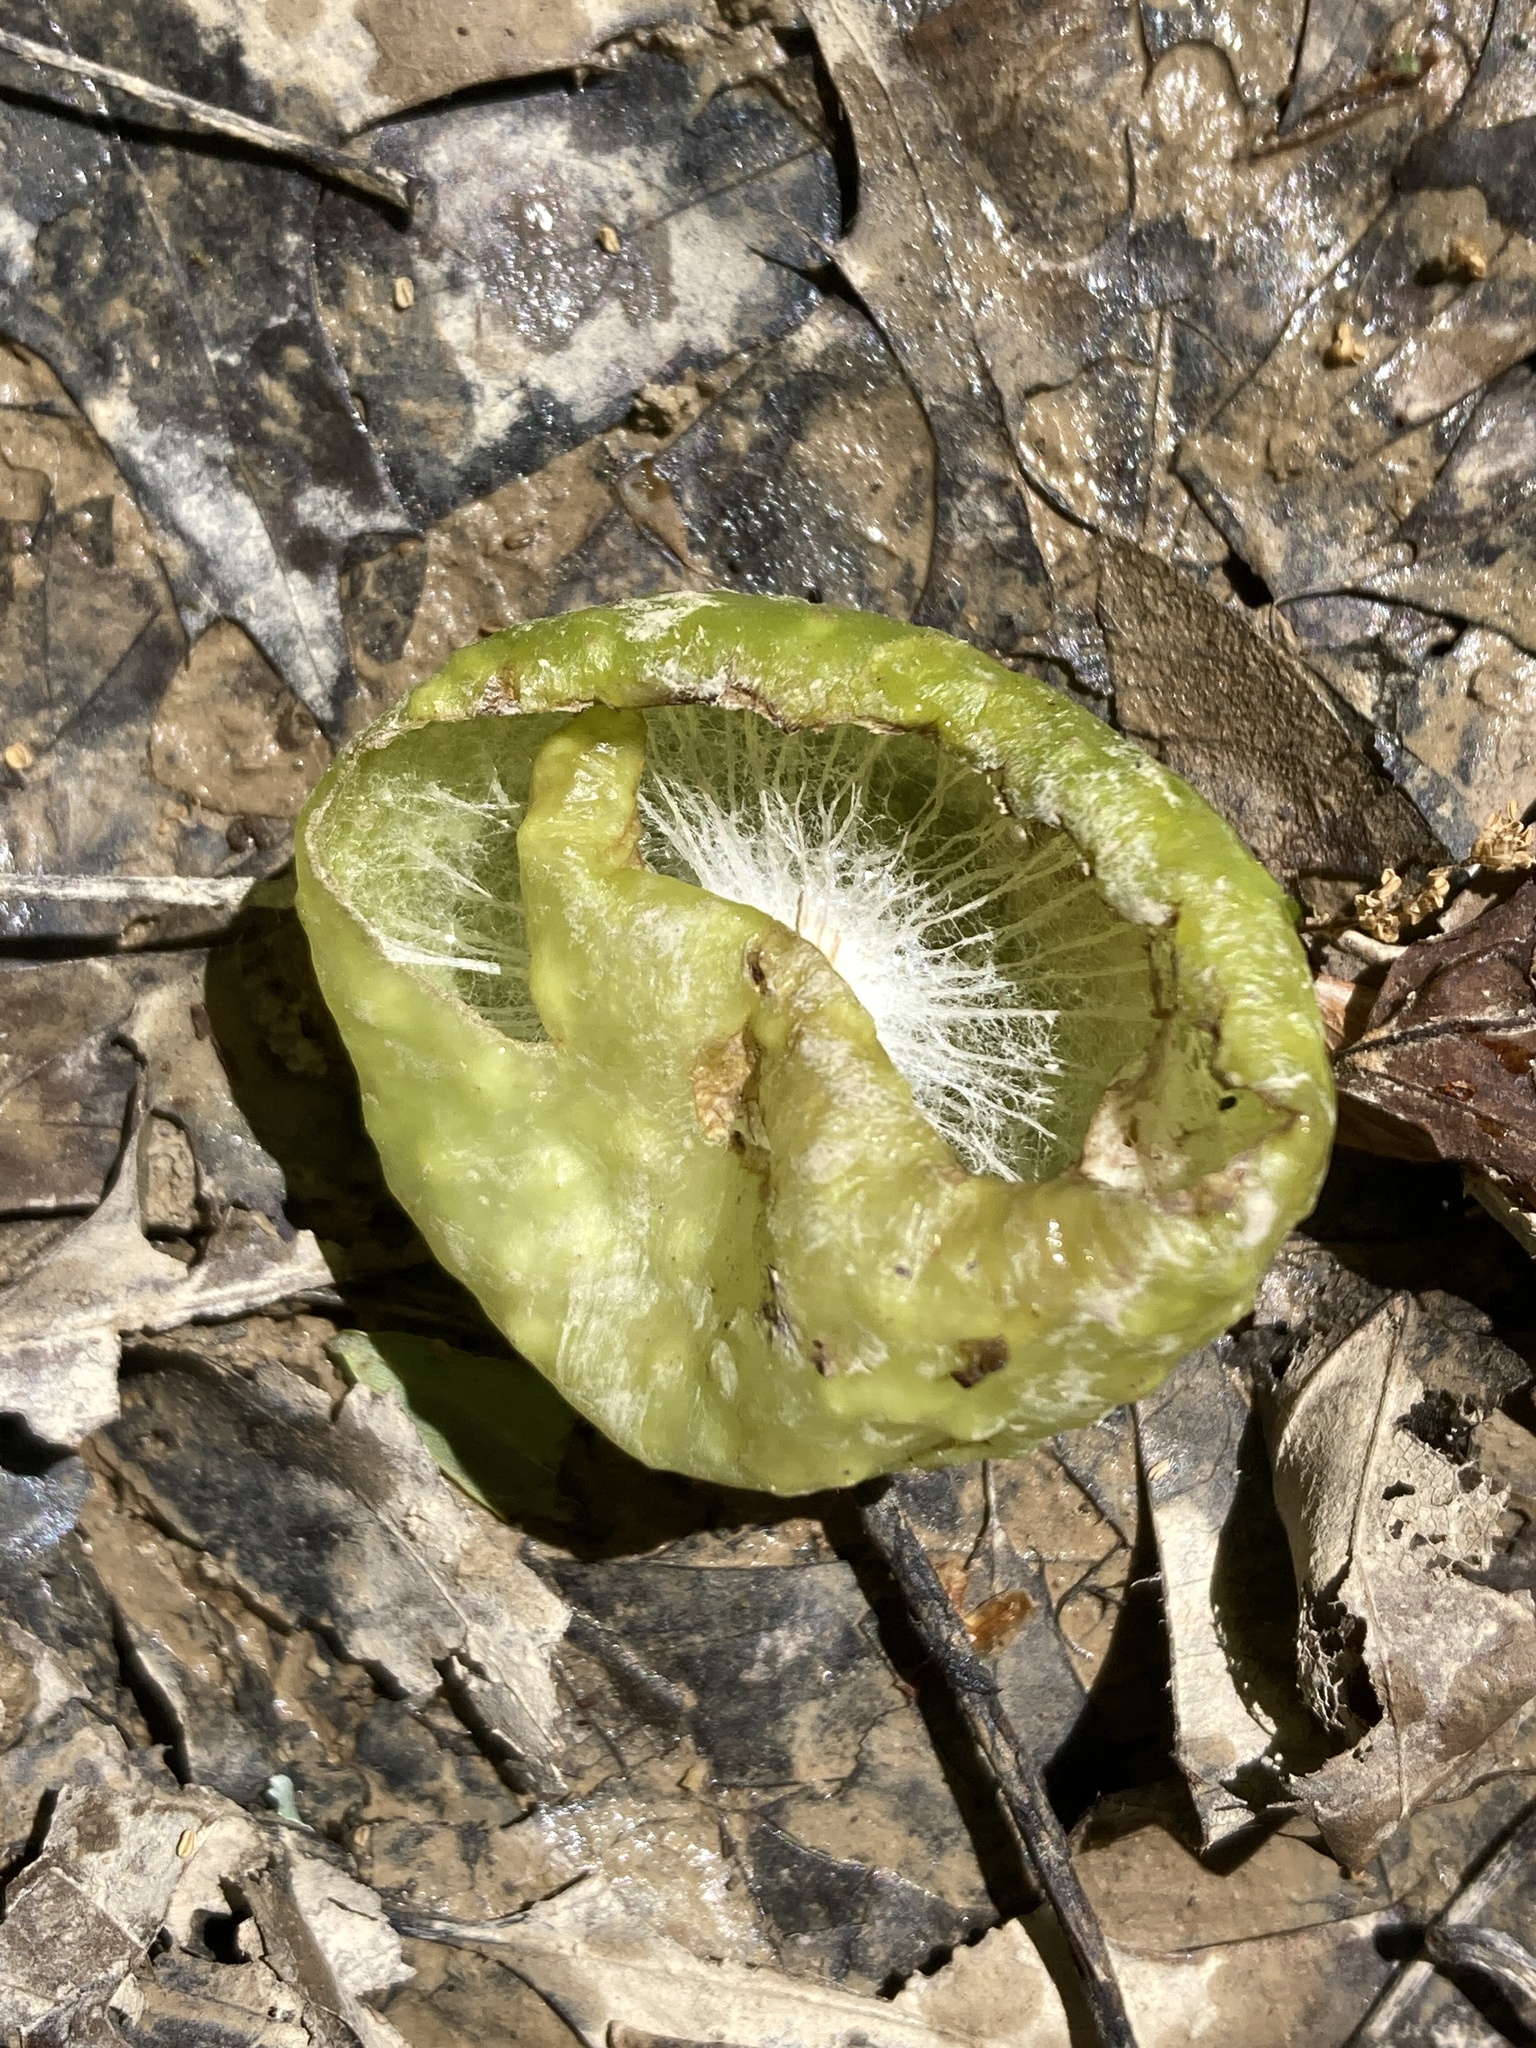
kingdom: Animalia
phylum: Arthropoda
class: Insecta
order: Hymenoptera
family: Cynipidae
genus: Amphibolips
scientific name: Amphibolips
